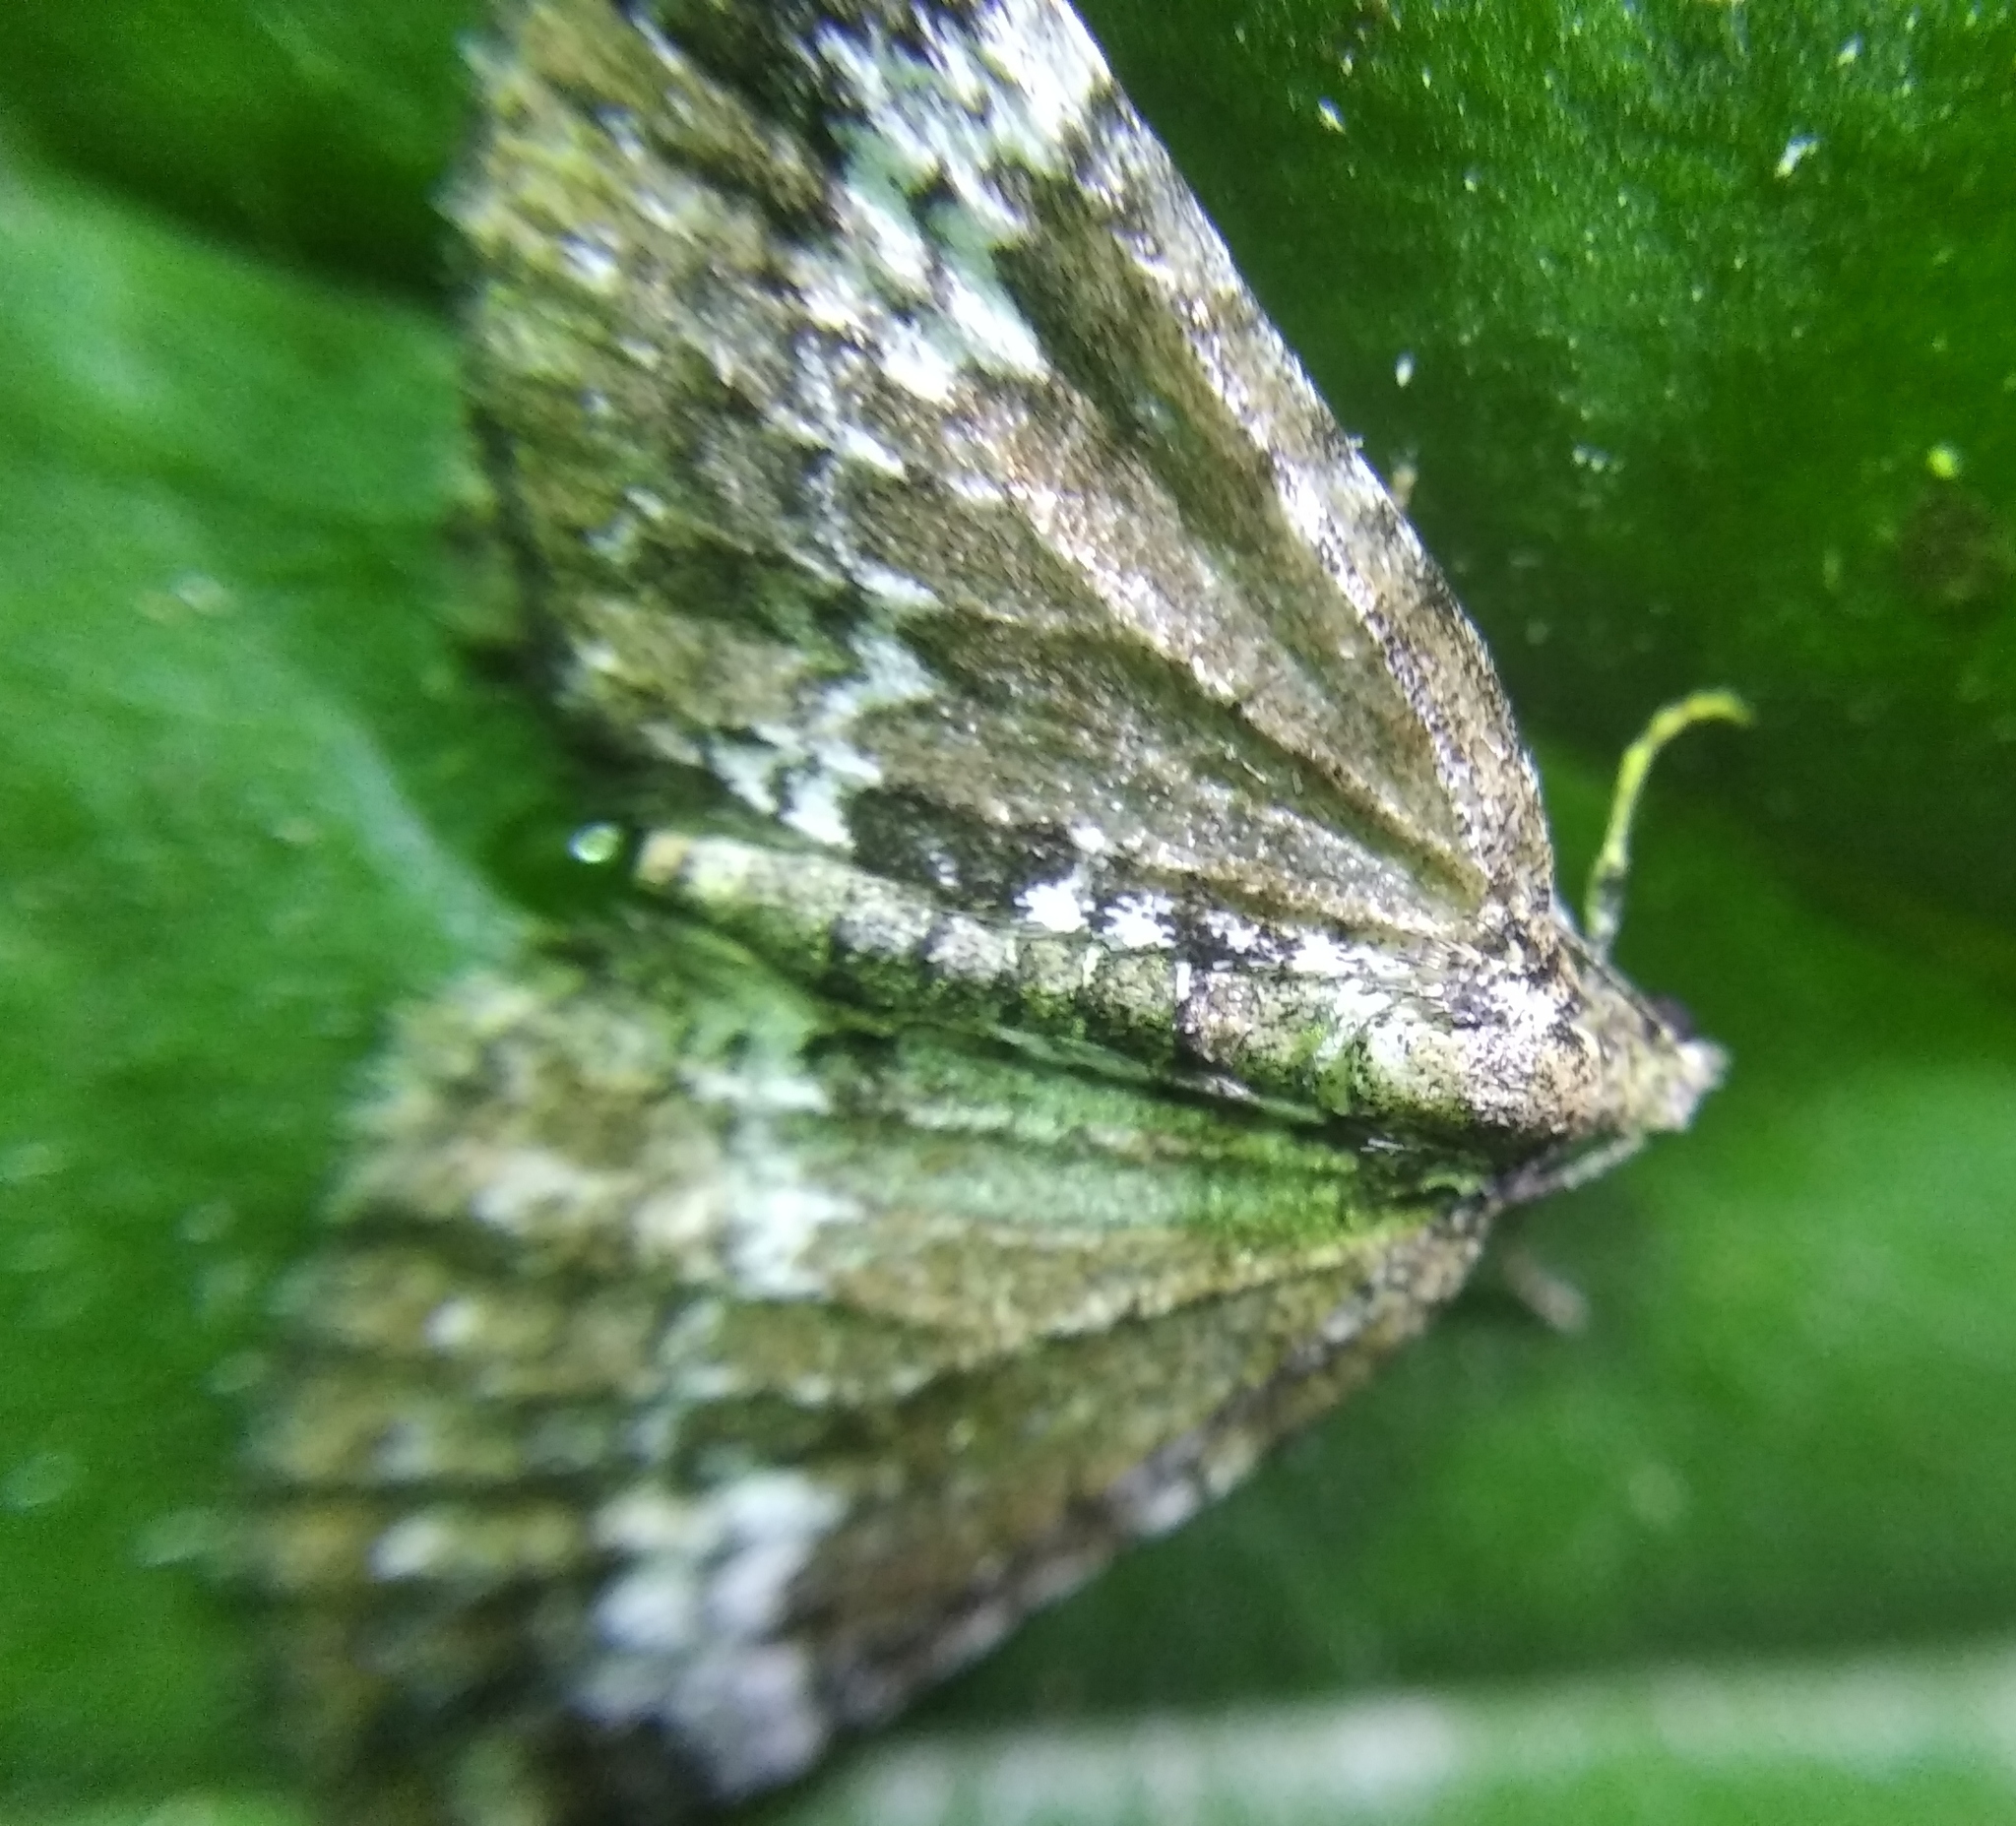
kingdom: Animalia
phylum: Arthropoda
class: Insecta
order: Lepidoptera
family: Geometridae
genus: Perizoma
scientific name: Perizoma alchemillata
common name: Small rivulet
